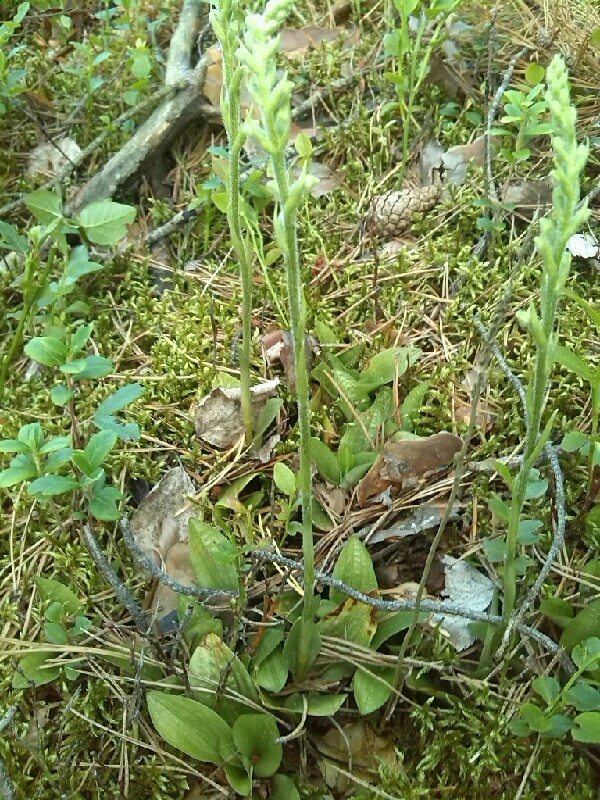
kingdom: Plantae
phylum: Tracheophyta
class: Liliopsida
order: Asparagales
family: Orchidaceae
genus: Goodyera
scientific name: Goodyera repens
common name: Creeping lady's-tresses
